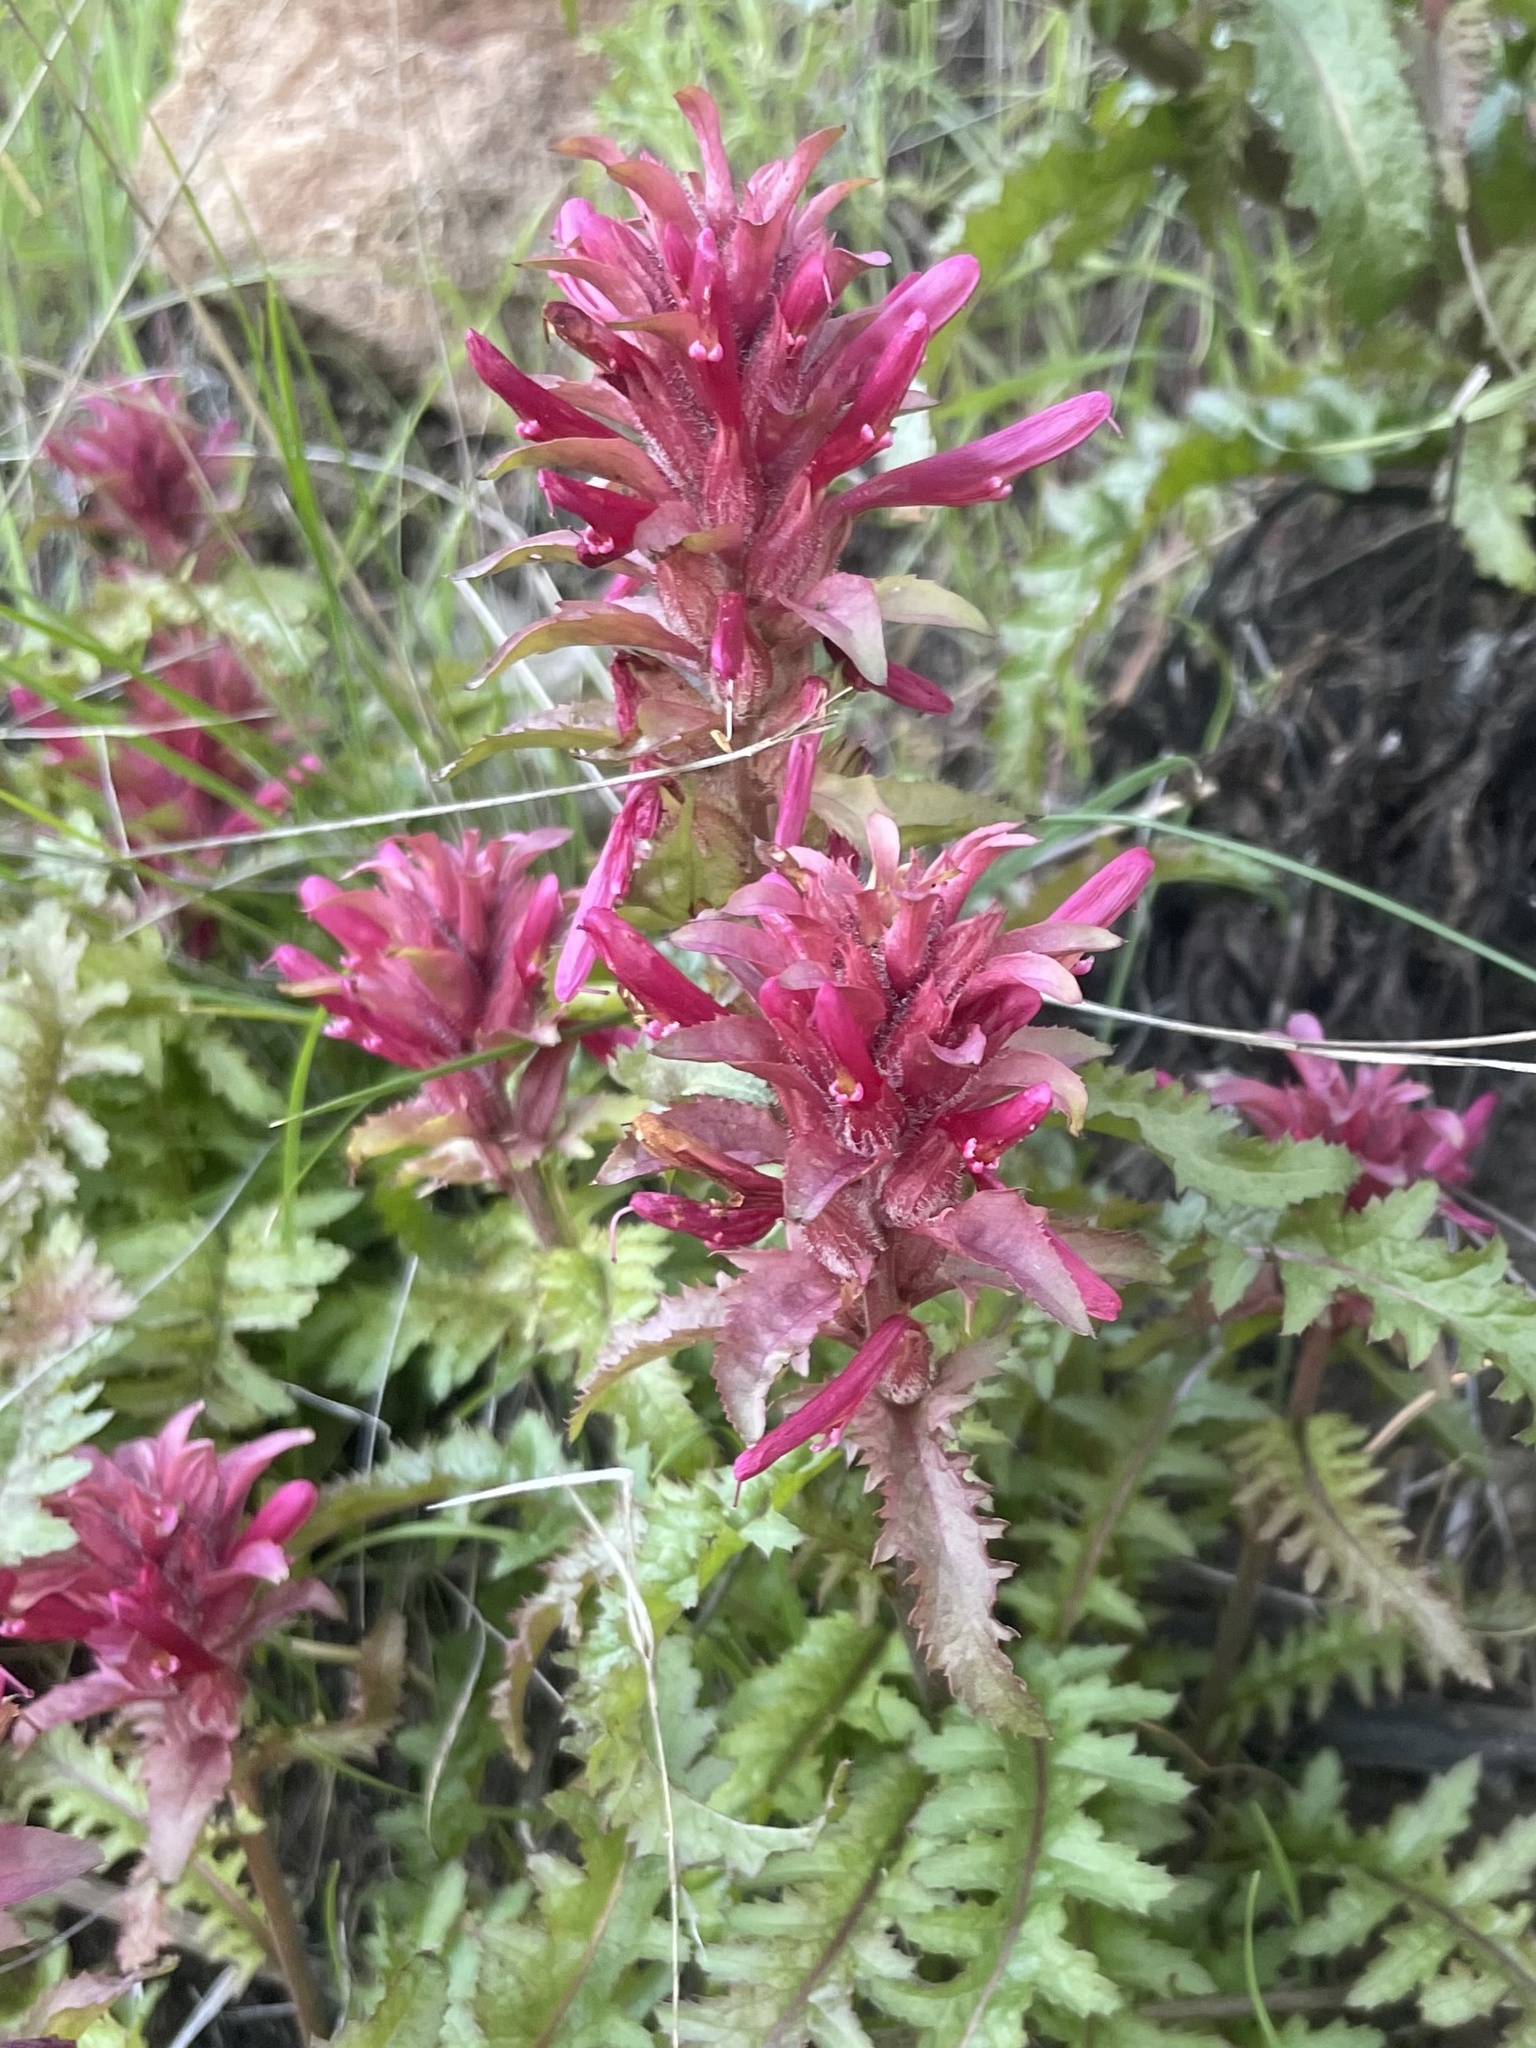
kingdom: Plantae
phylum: Tracheophyta
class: Magnoliopsida
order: Lamiales
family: Orobanchaceae
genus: Pedicularis
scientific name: Pedicularis densiflora
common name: Indian warrior
